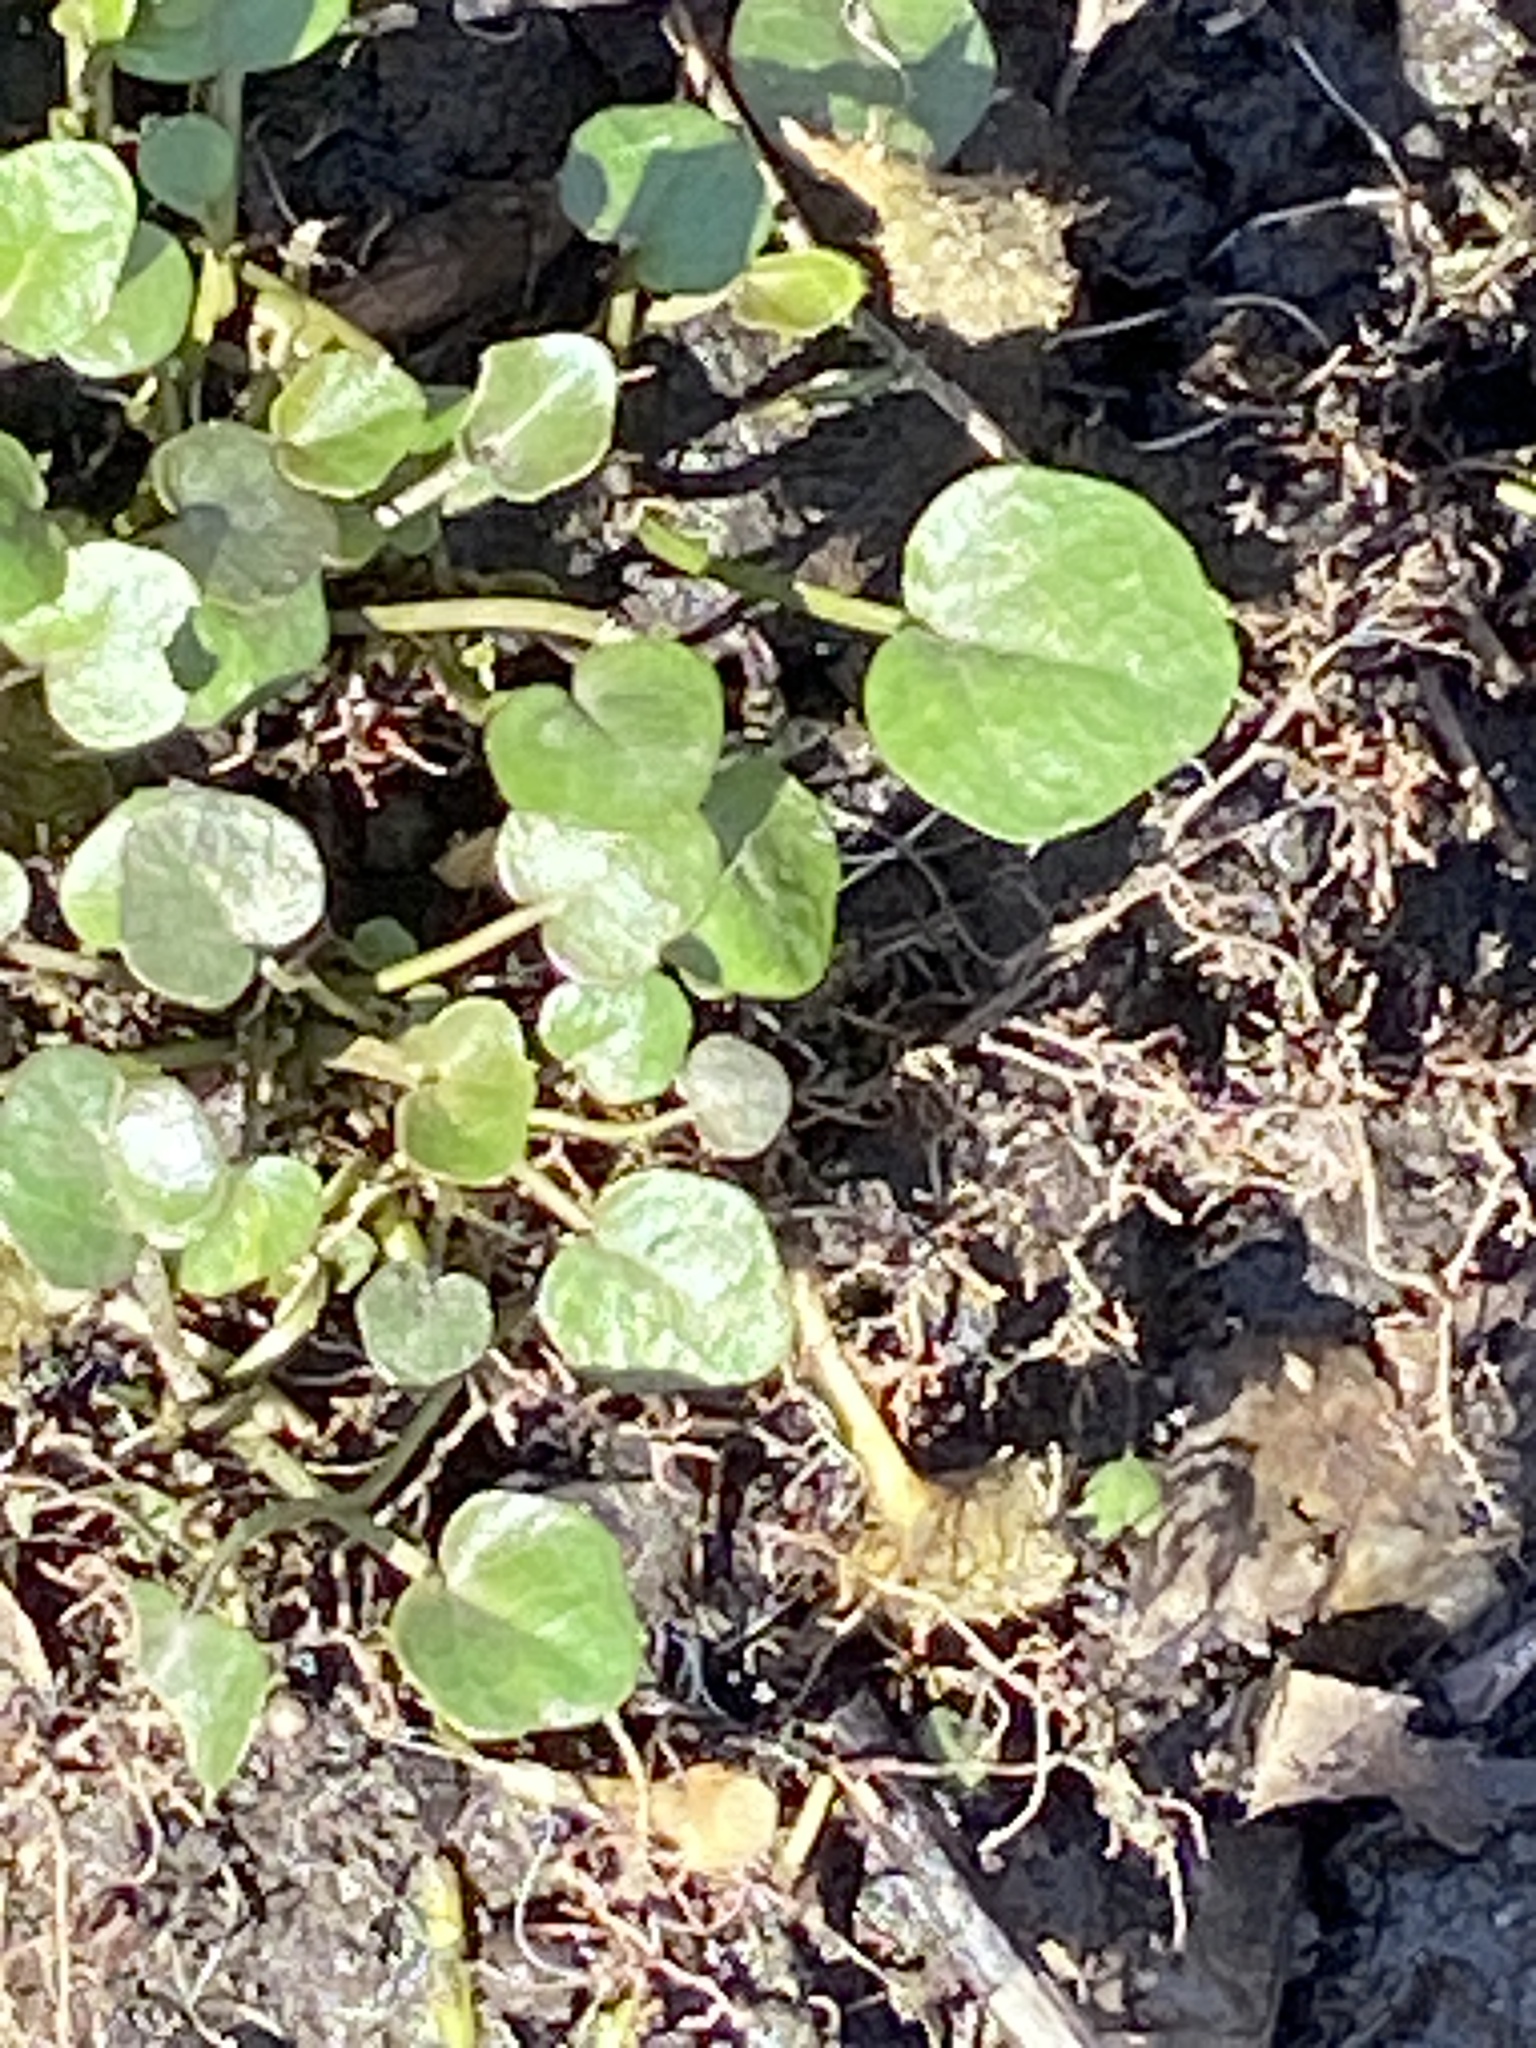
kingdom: Plantae
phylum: Tracheophyta
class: Magnoliopsida
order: Ranunculales
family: Ranunculaceae
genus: Ficaria
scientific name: Ficaria verna
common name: Lesser celandine
